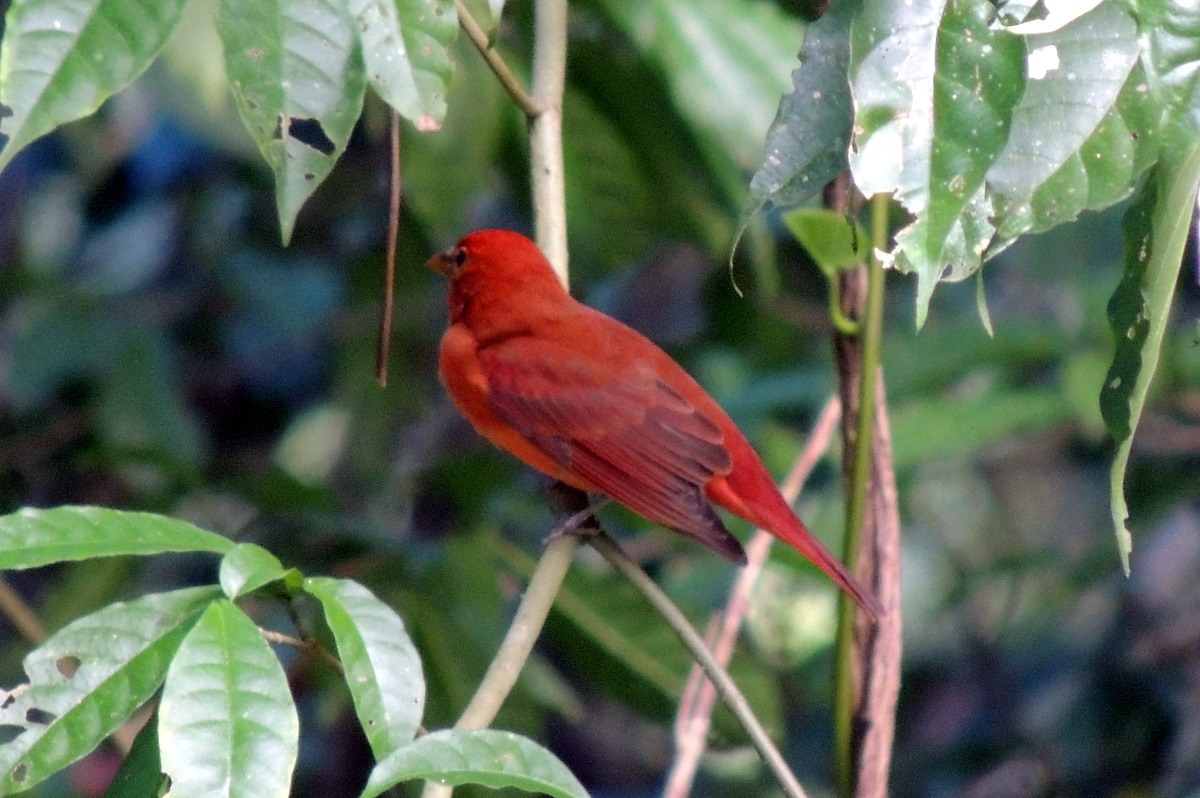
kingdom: Animalia
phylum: Chordata
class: Aves
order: Passeriformes
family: Cardinalidae
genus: Piranga
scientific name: Piranga rubra
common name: Summer tanager
